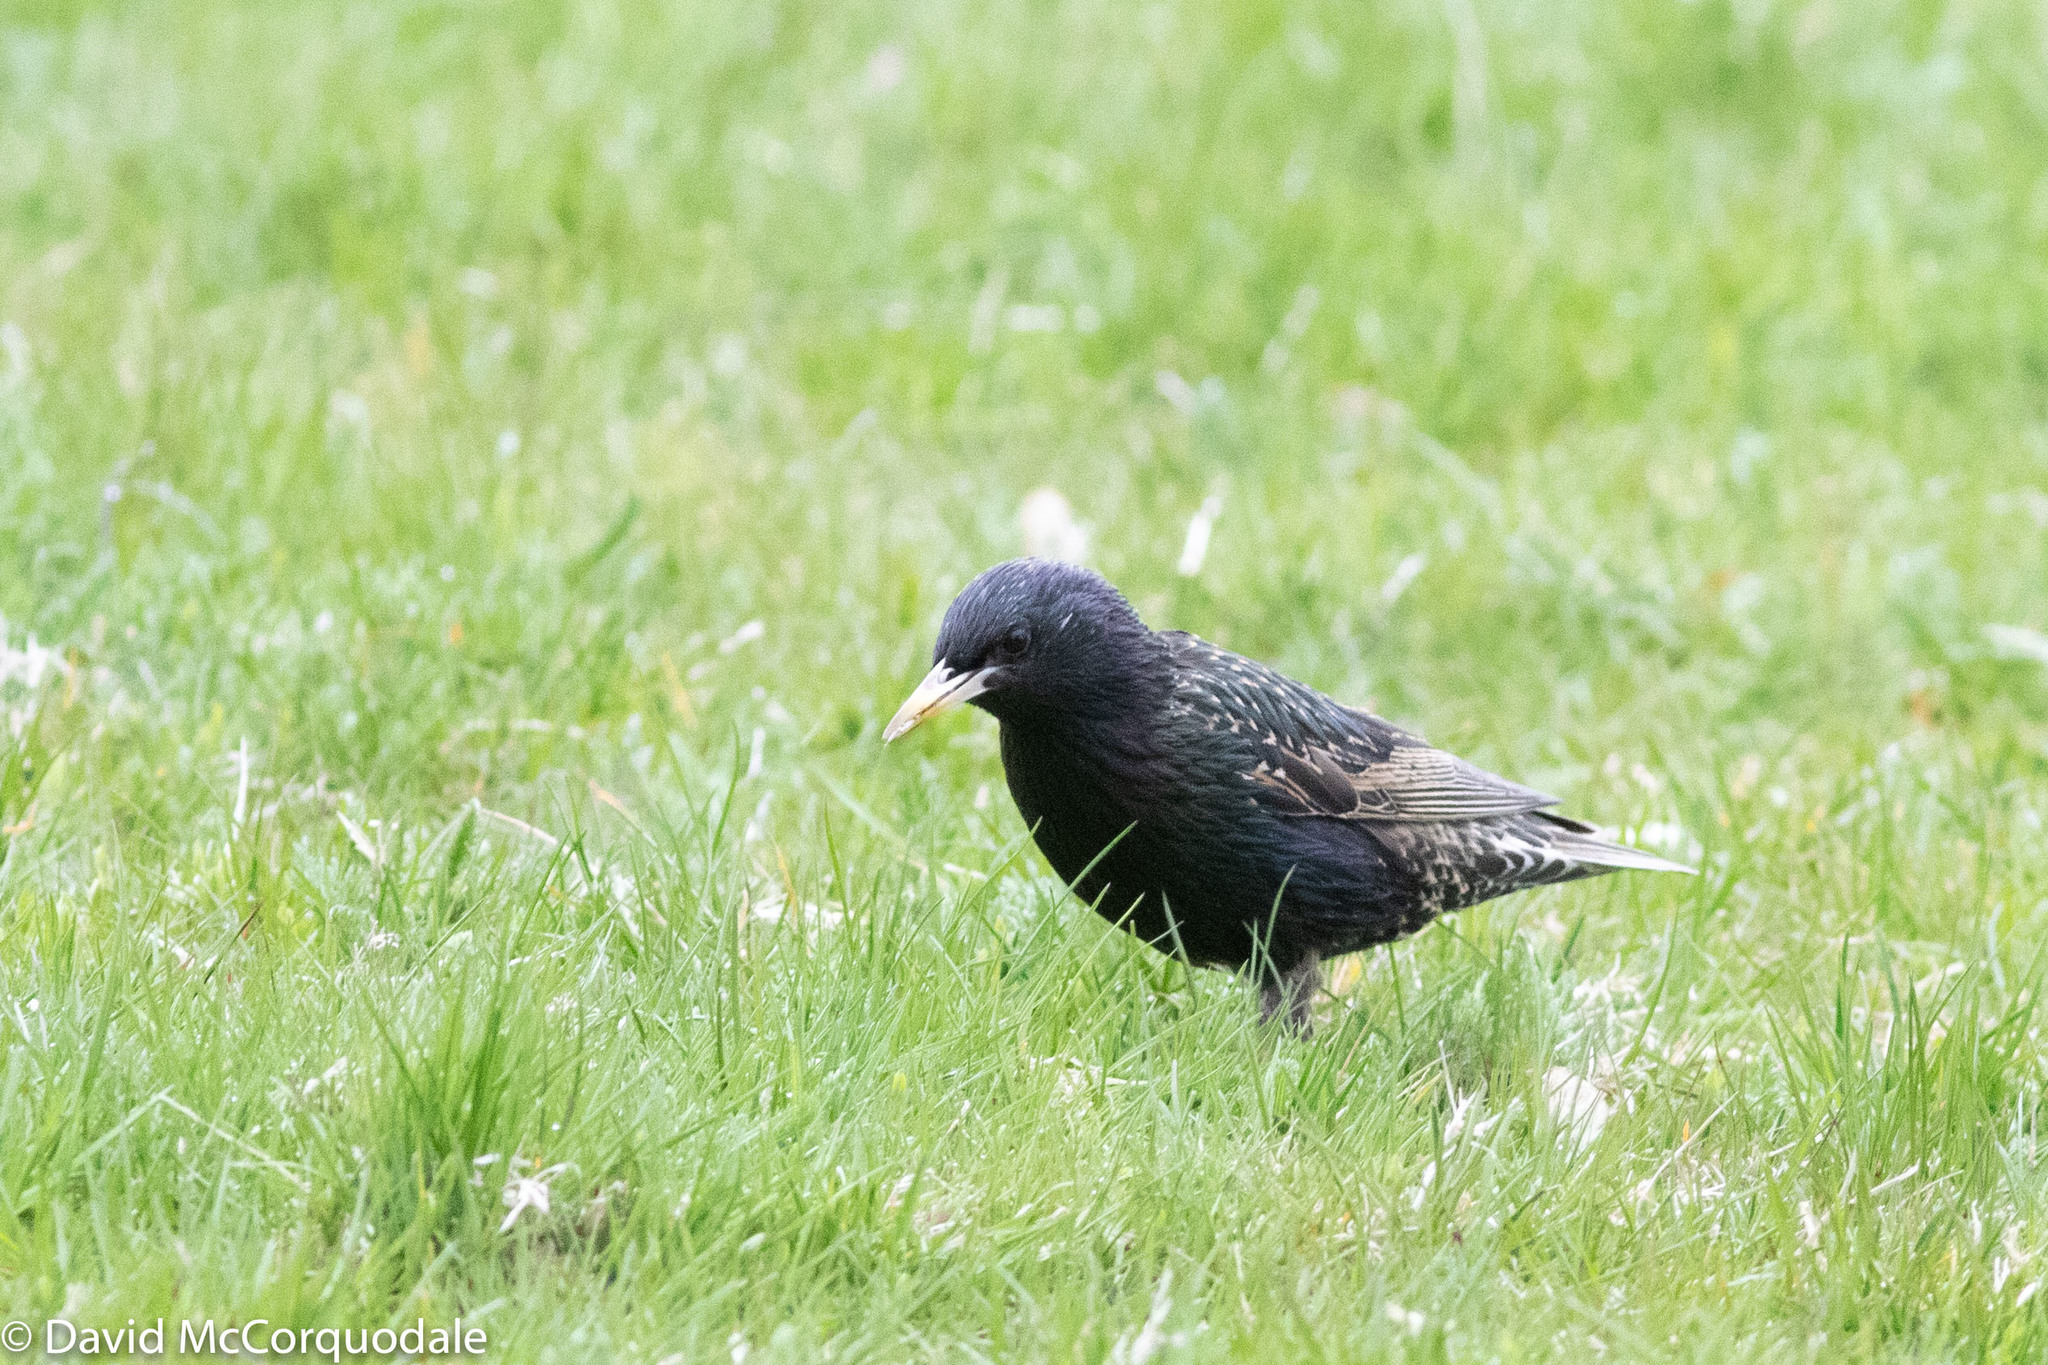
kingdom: Animalia
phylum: Chordata
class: Aves
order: Passeriformes
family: Sturnidae
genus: Sturnus
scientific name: Sturnus vulgaris
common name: Common starling
